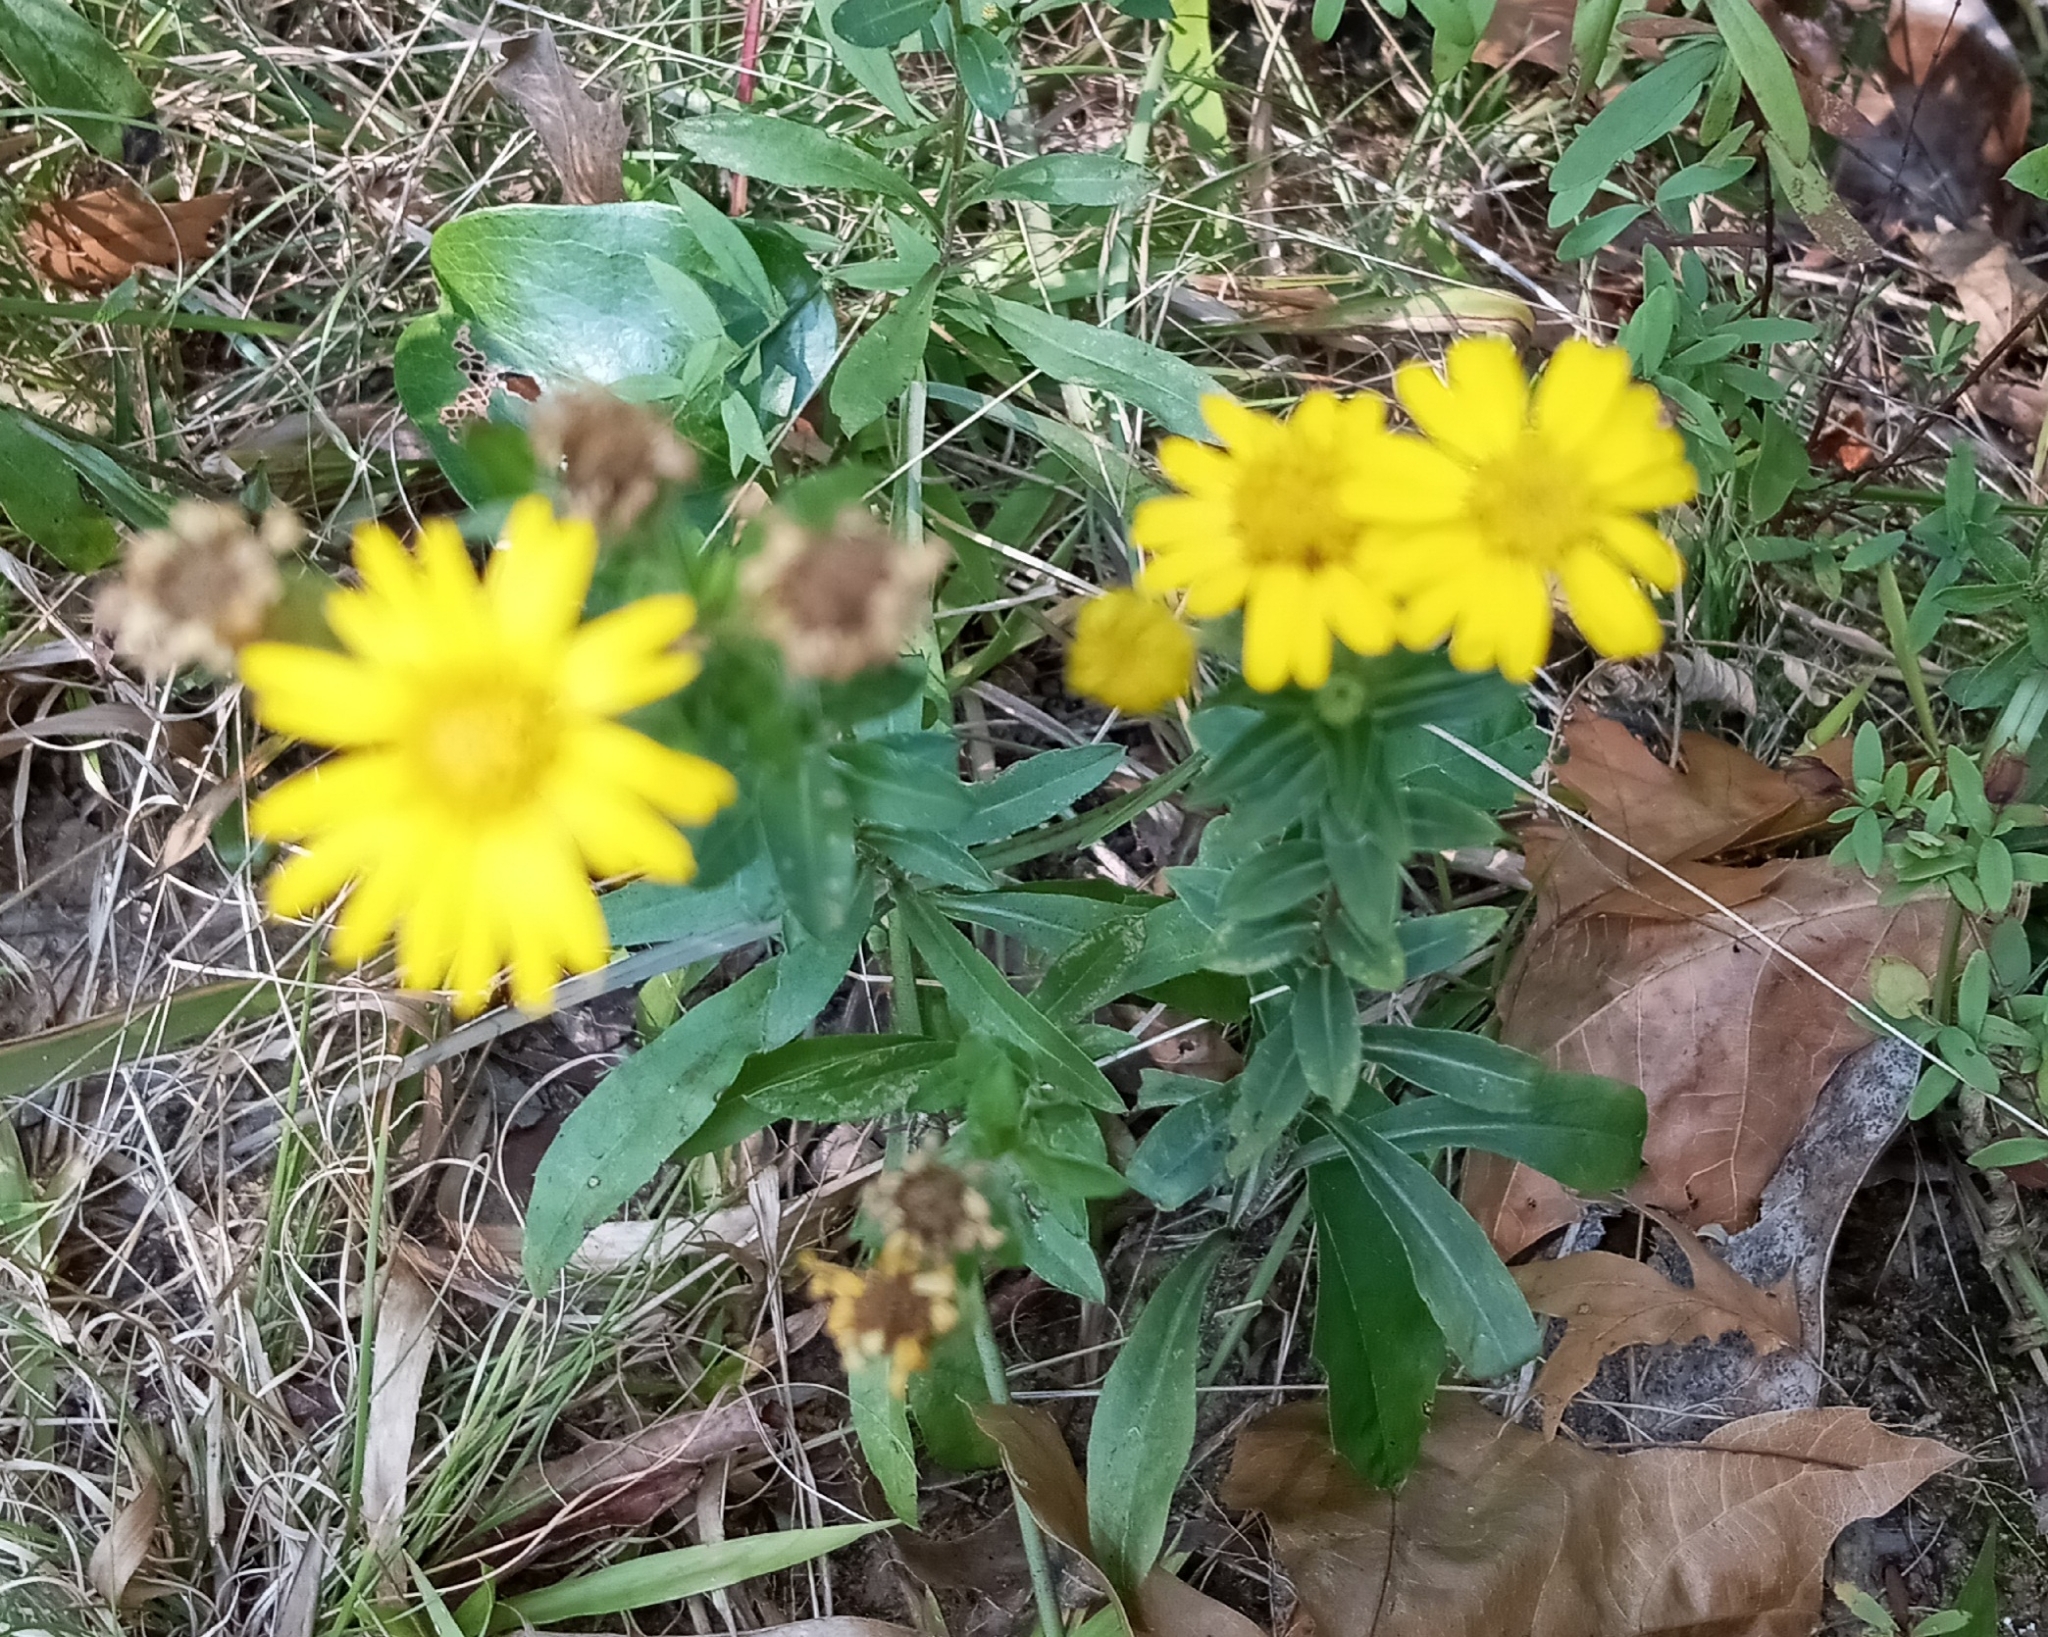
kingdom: Plantae
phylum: Tracheophyta
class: Magnoliopsida
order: Asterales
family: Asteraceae
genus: Chrysopsis
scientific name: Chrysopsis mariana
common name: Maryland golden-aster
